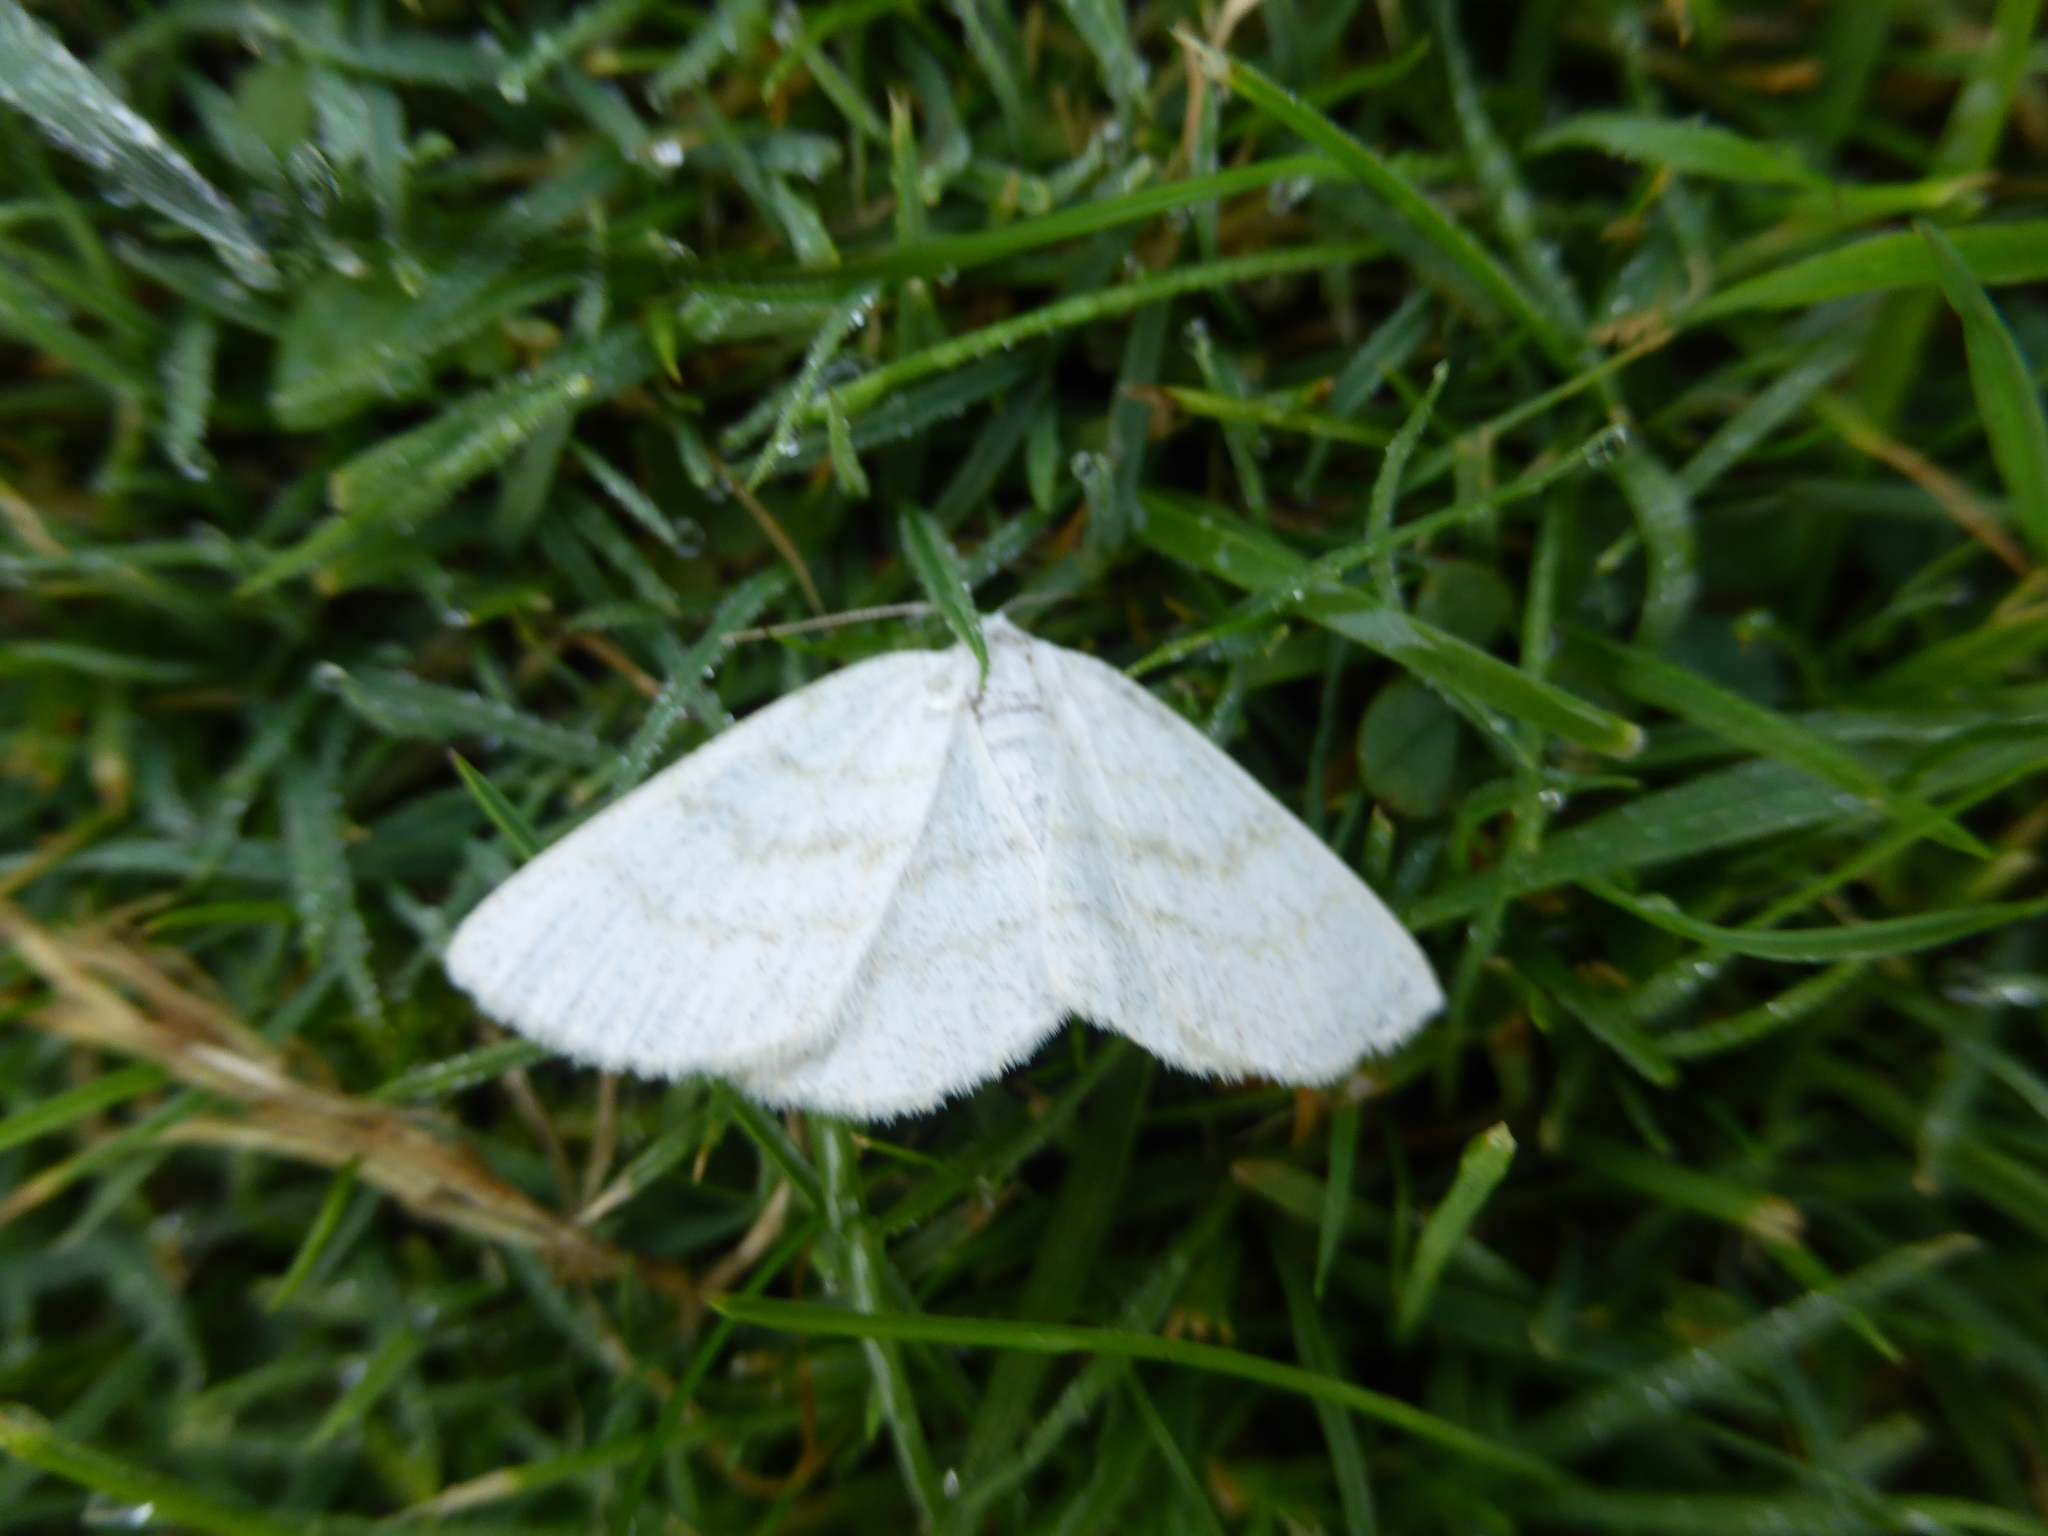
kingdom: Animalia
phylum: Arthropoda
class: Insecta
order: Lepidoptera
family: Geometridae
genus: Cabera
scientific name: Cabera exanthemata
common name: Common wave
